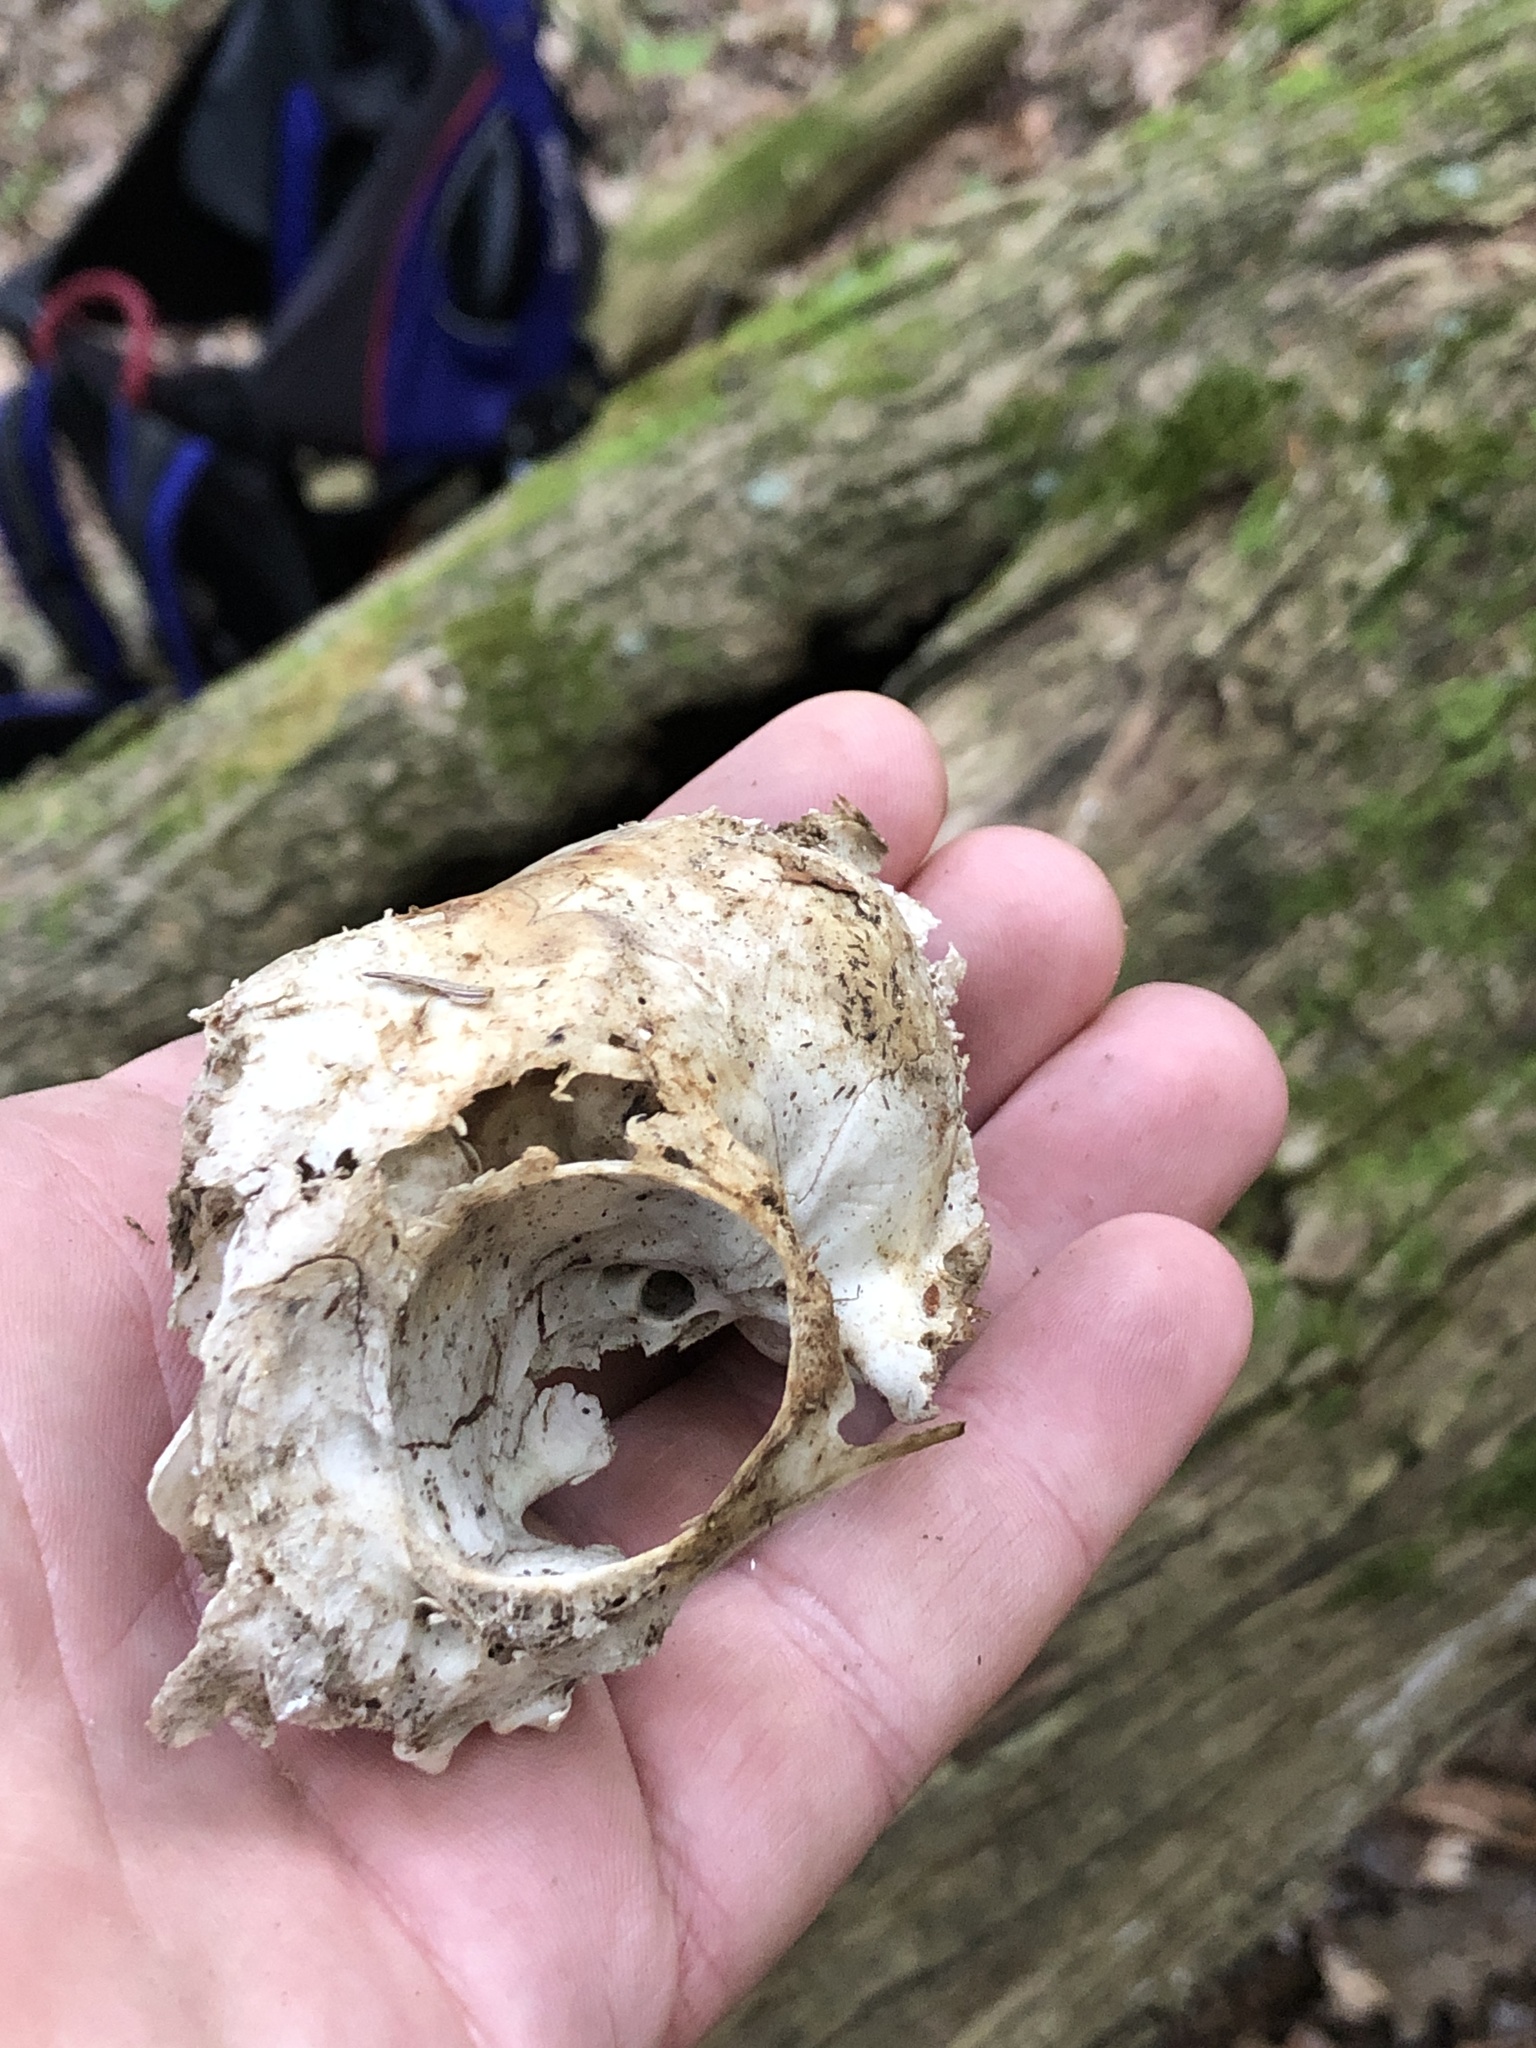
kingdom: Animalia
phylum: Chordata
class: Mammalia
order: Carnivora
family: Felidae
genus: Felis
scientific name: Felis catus
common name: Domestic cat
